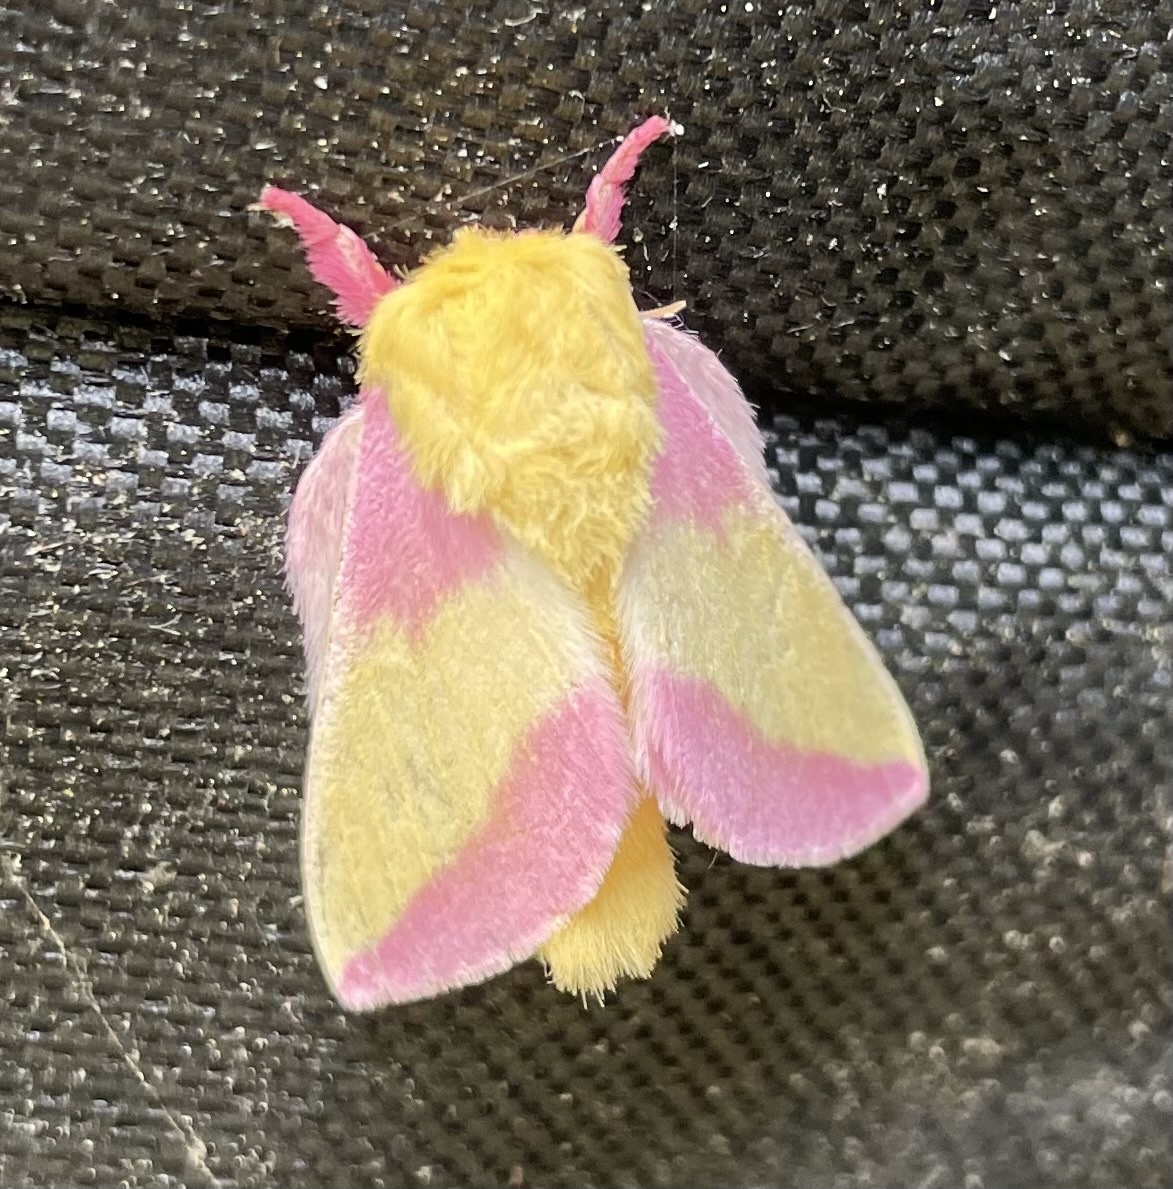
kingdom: Animalia
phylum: Arthropoda
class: Insecta
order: Lepidoptera
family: Saturniidae
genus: Dryocampa
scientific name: Dryocampa rubicunda
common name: Rosy maple moth
